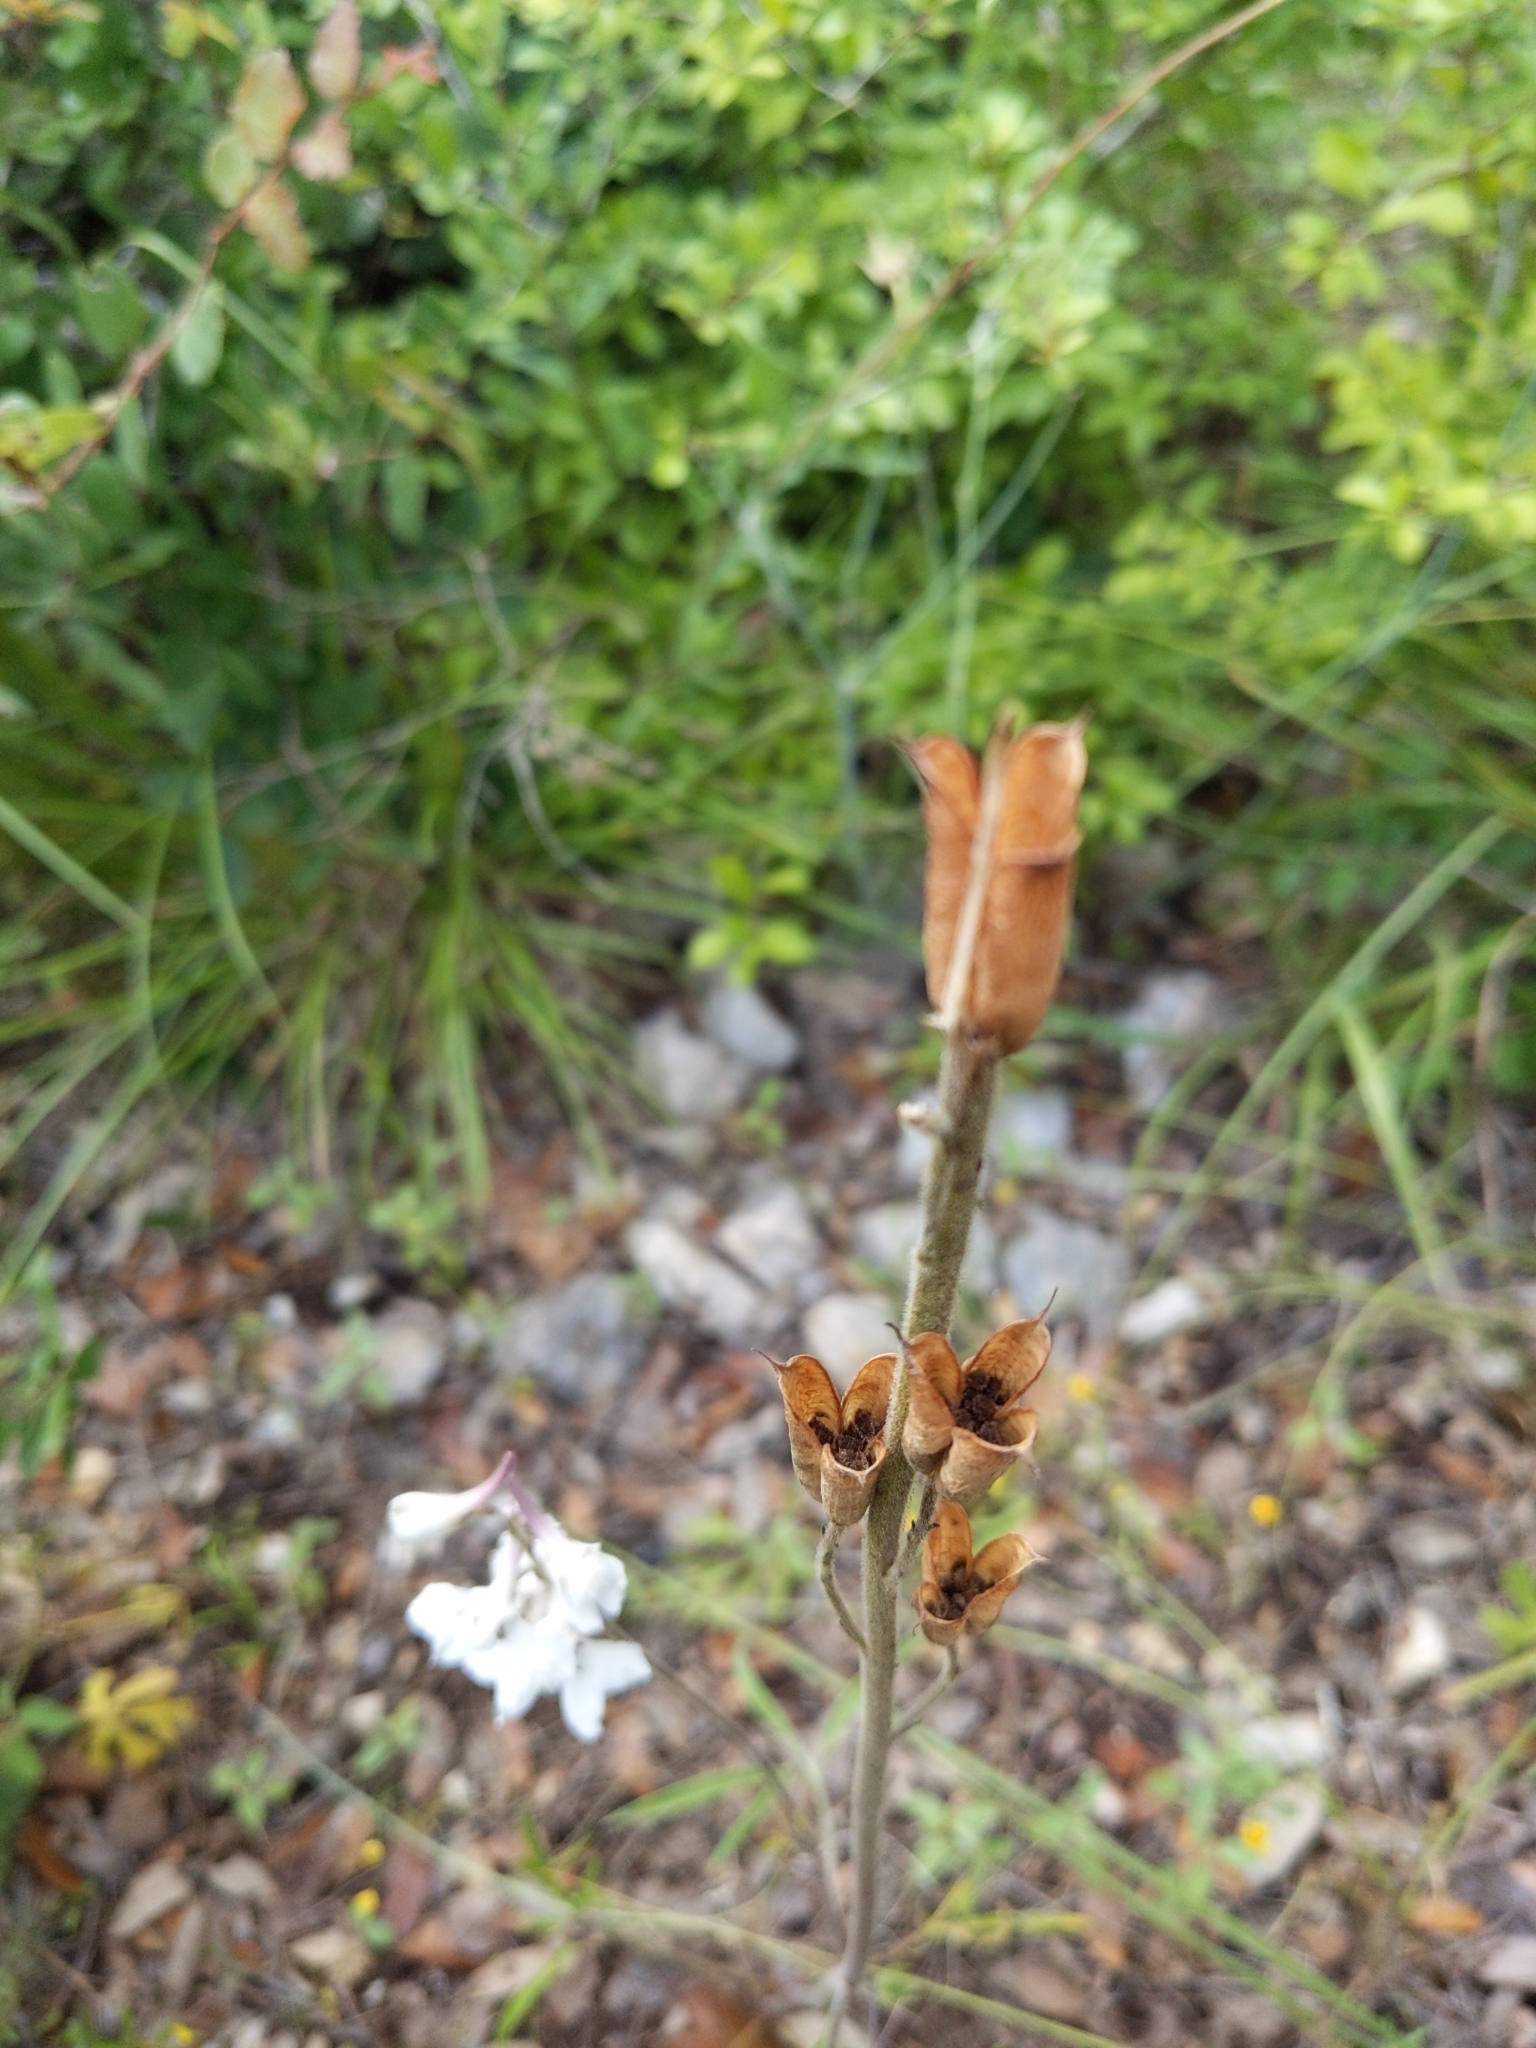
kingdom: Plantae
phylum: Tracheophyta
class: Magnoliopsida
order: Ranunculales
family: Ranunculaceae
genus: Delphinium
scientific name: Delphinium carolinianum
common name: Carolina larkspur
